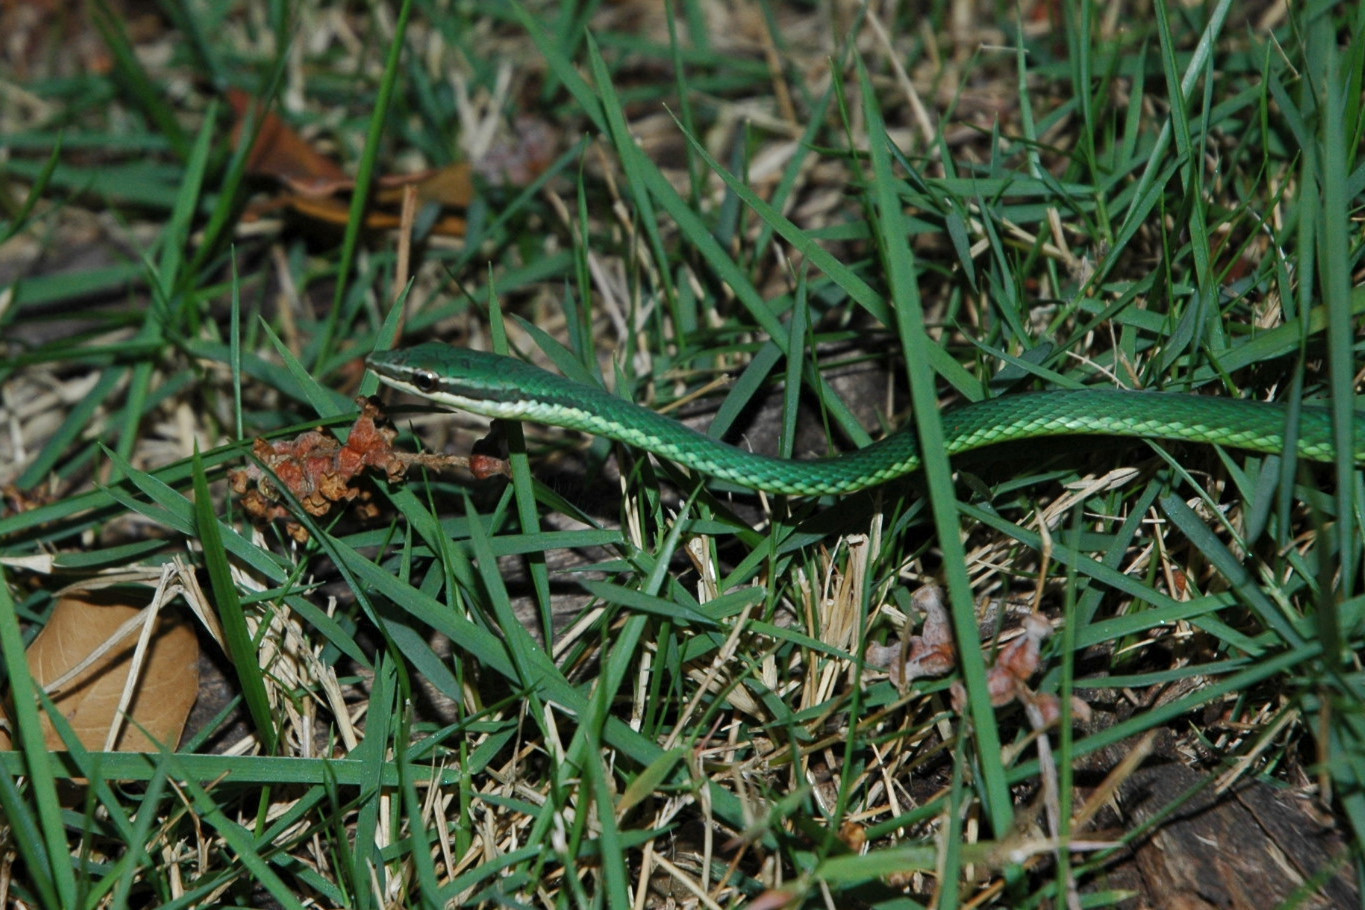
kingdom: Animalia
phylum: Chordata
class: Squamata
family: Colubridae
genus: Uromacer
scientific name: Uromacer catesbyi
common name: Catesby's pointed snake
